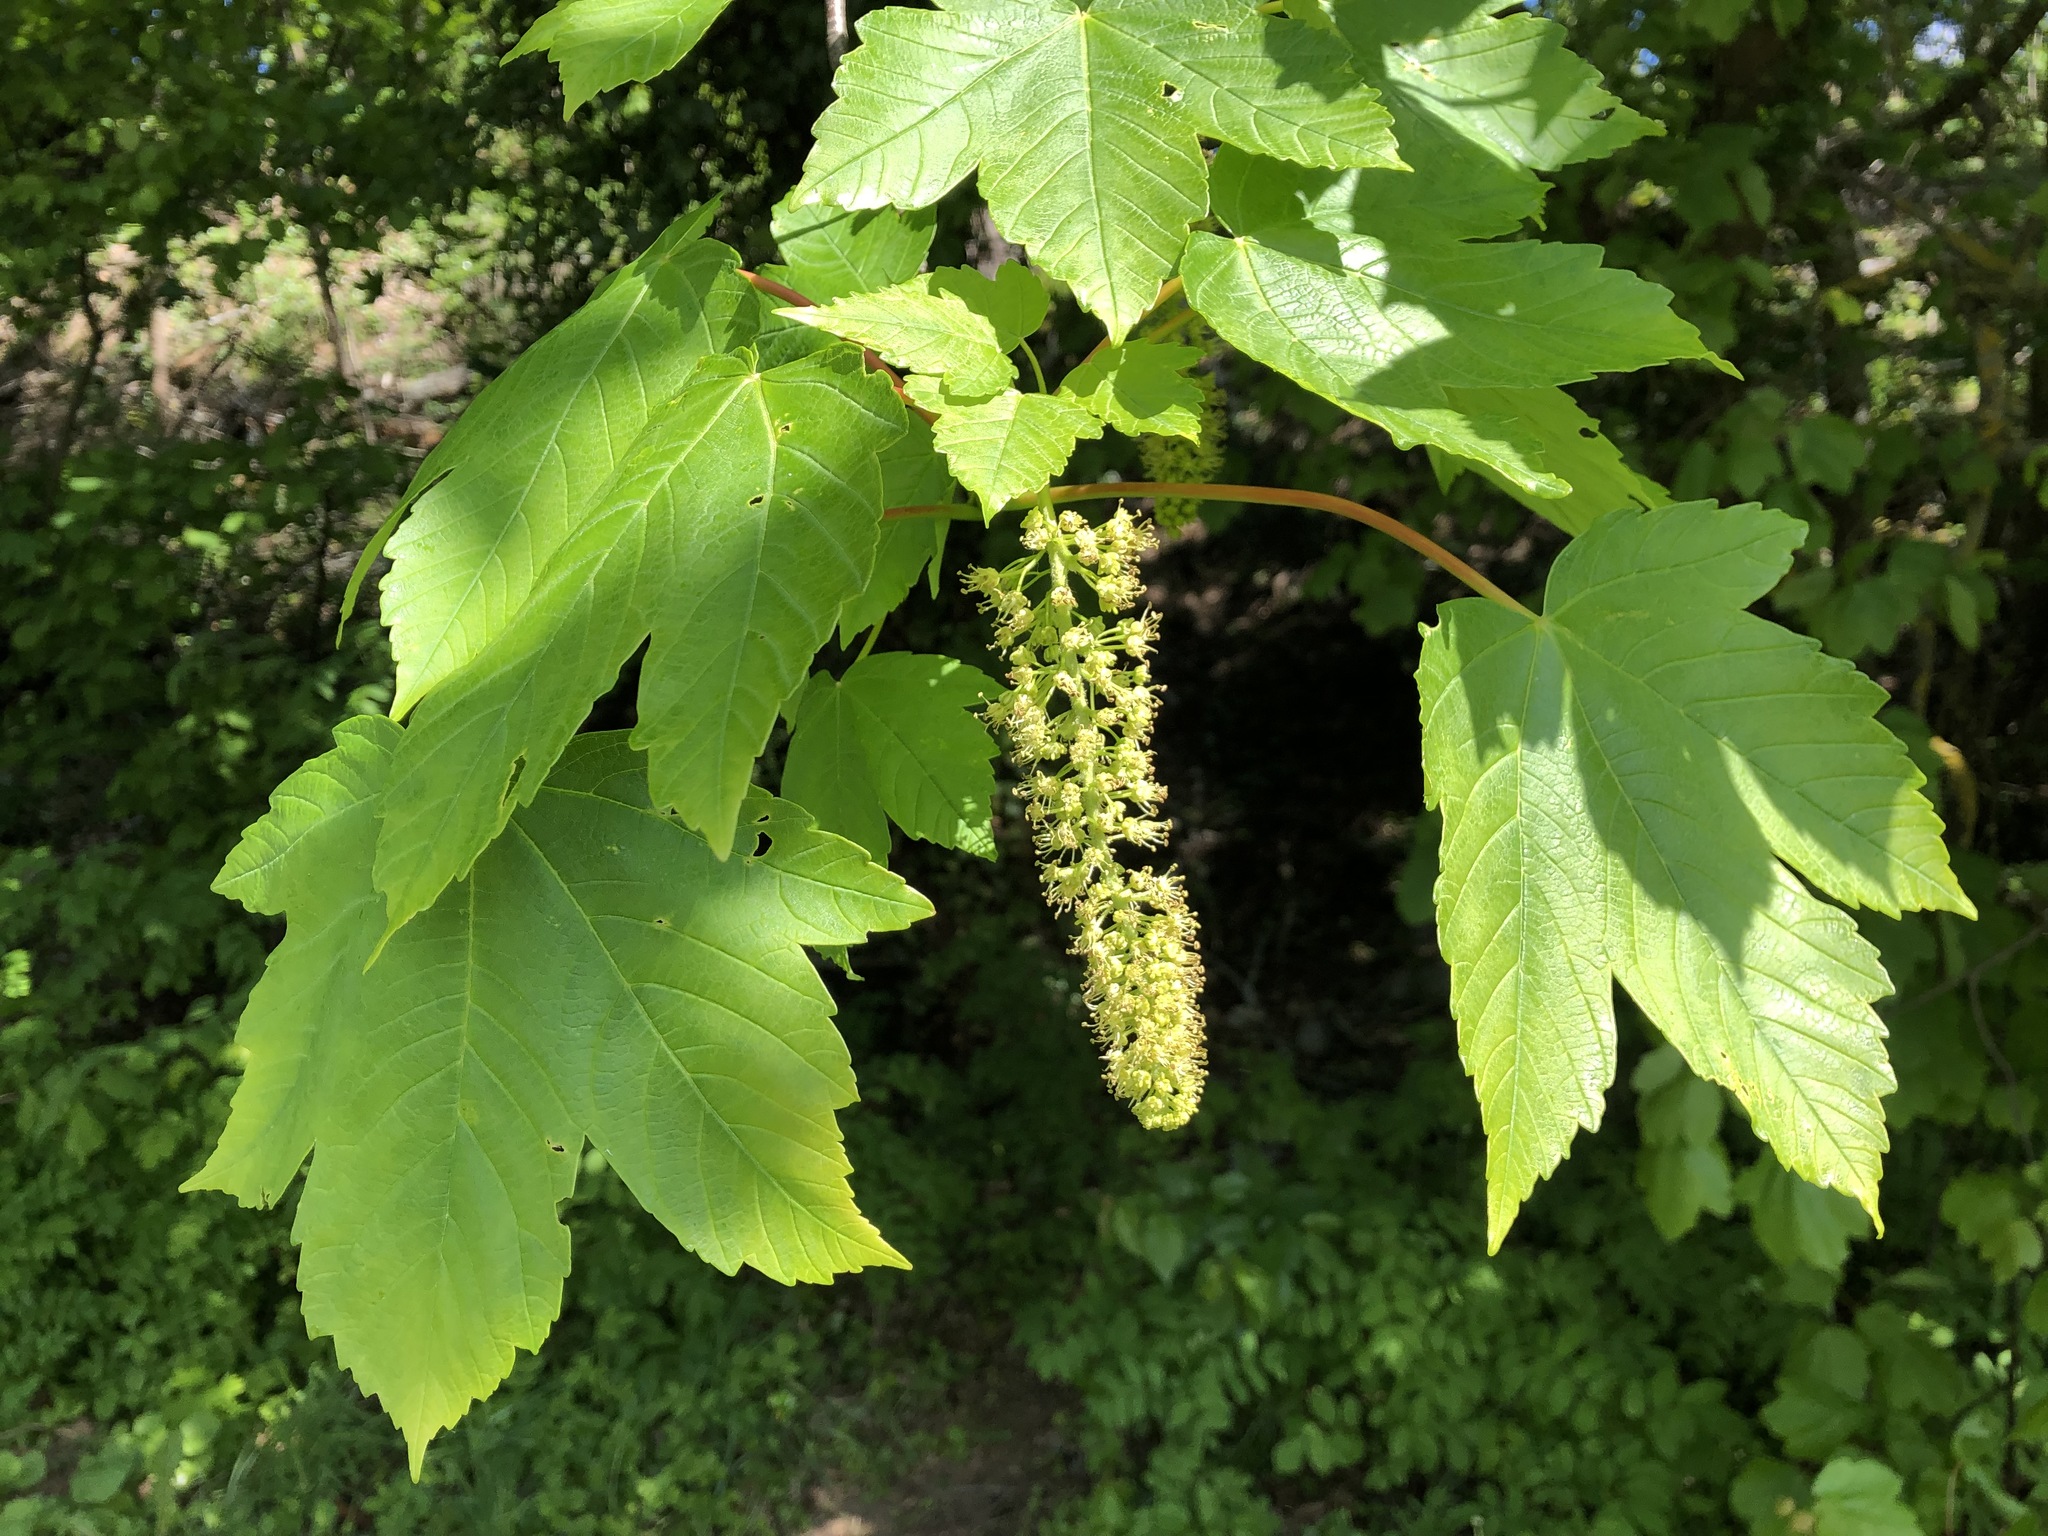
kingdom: Plantae
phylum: Tracheophyta
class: Magnoliopsida
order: Sapindales
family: Sapindaceae
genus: Acer
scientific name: Acer pseudoplatanus
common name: Sycamore
